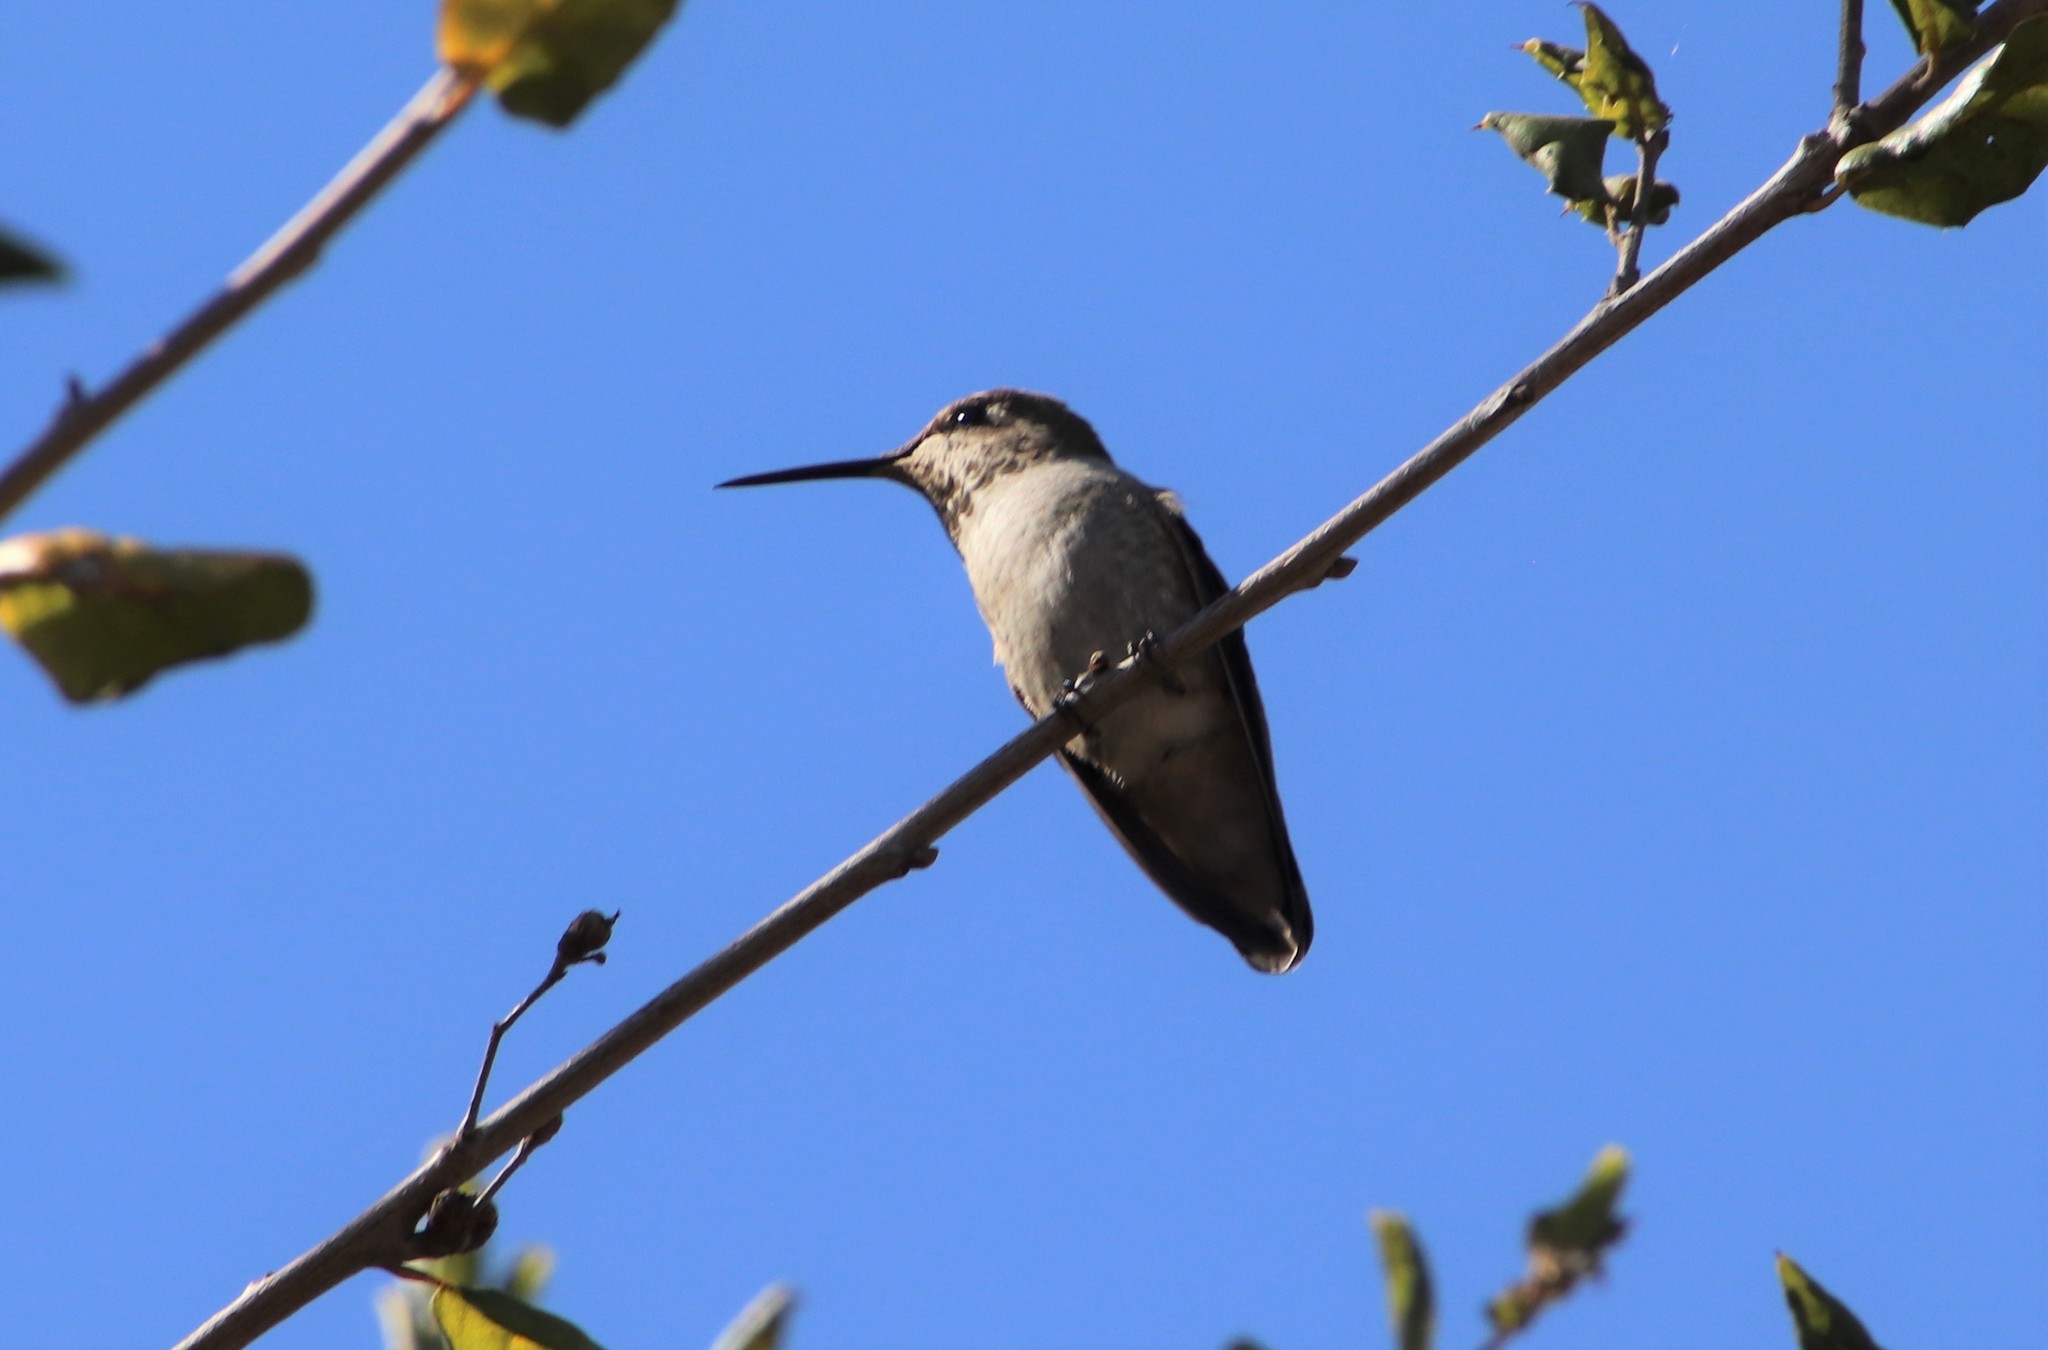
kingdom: Animalia
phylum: Chordata
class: Aves
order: Apodiformes
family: Trochilidae
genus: Calypte
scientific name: Calypte anna
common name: Anna's hummingbird
